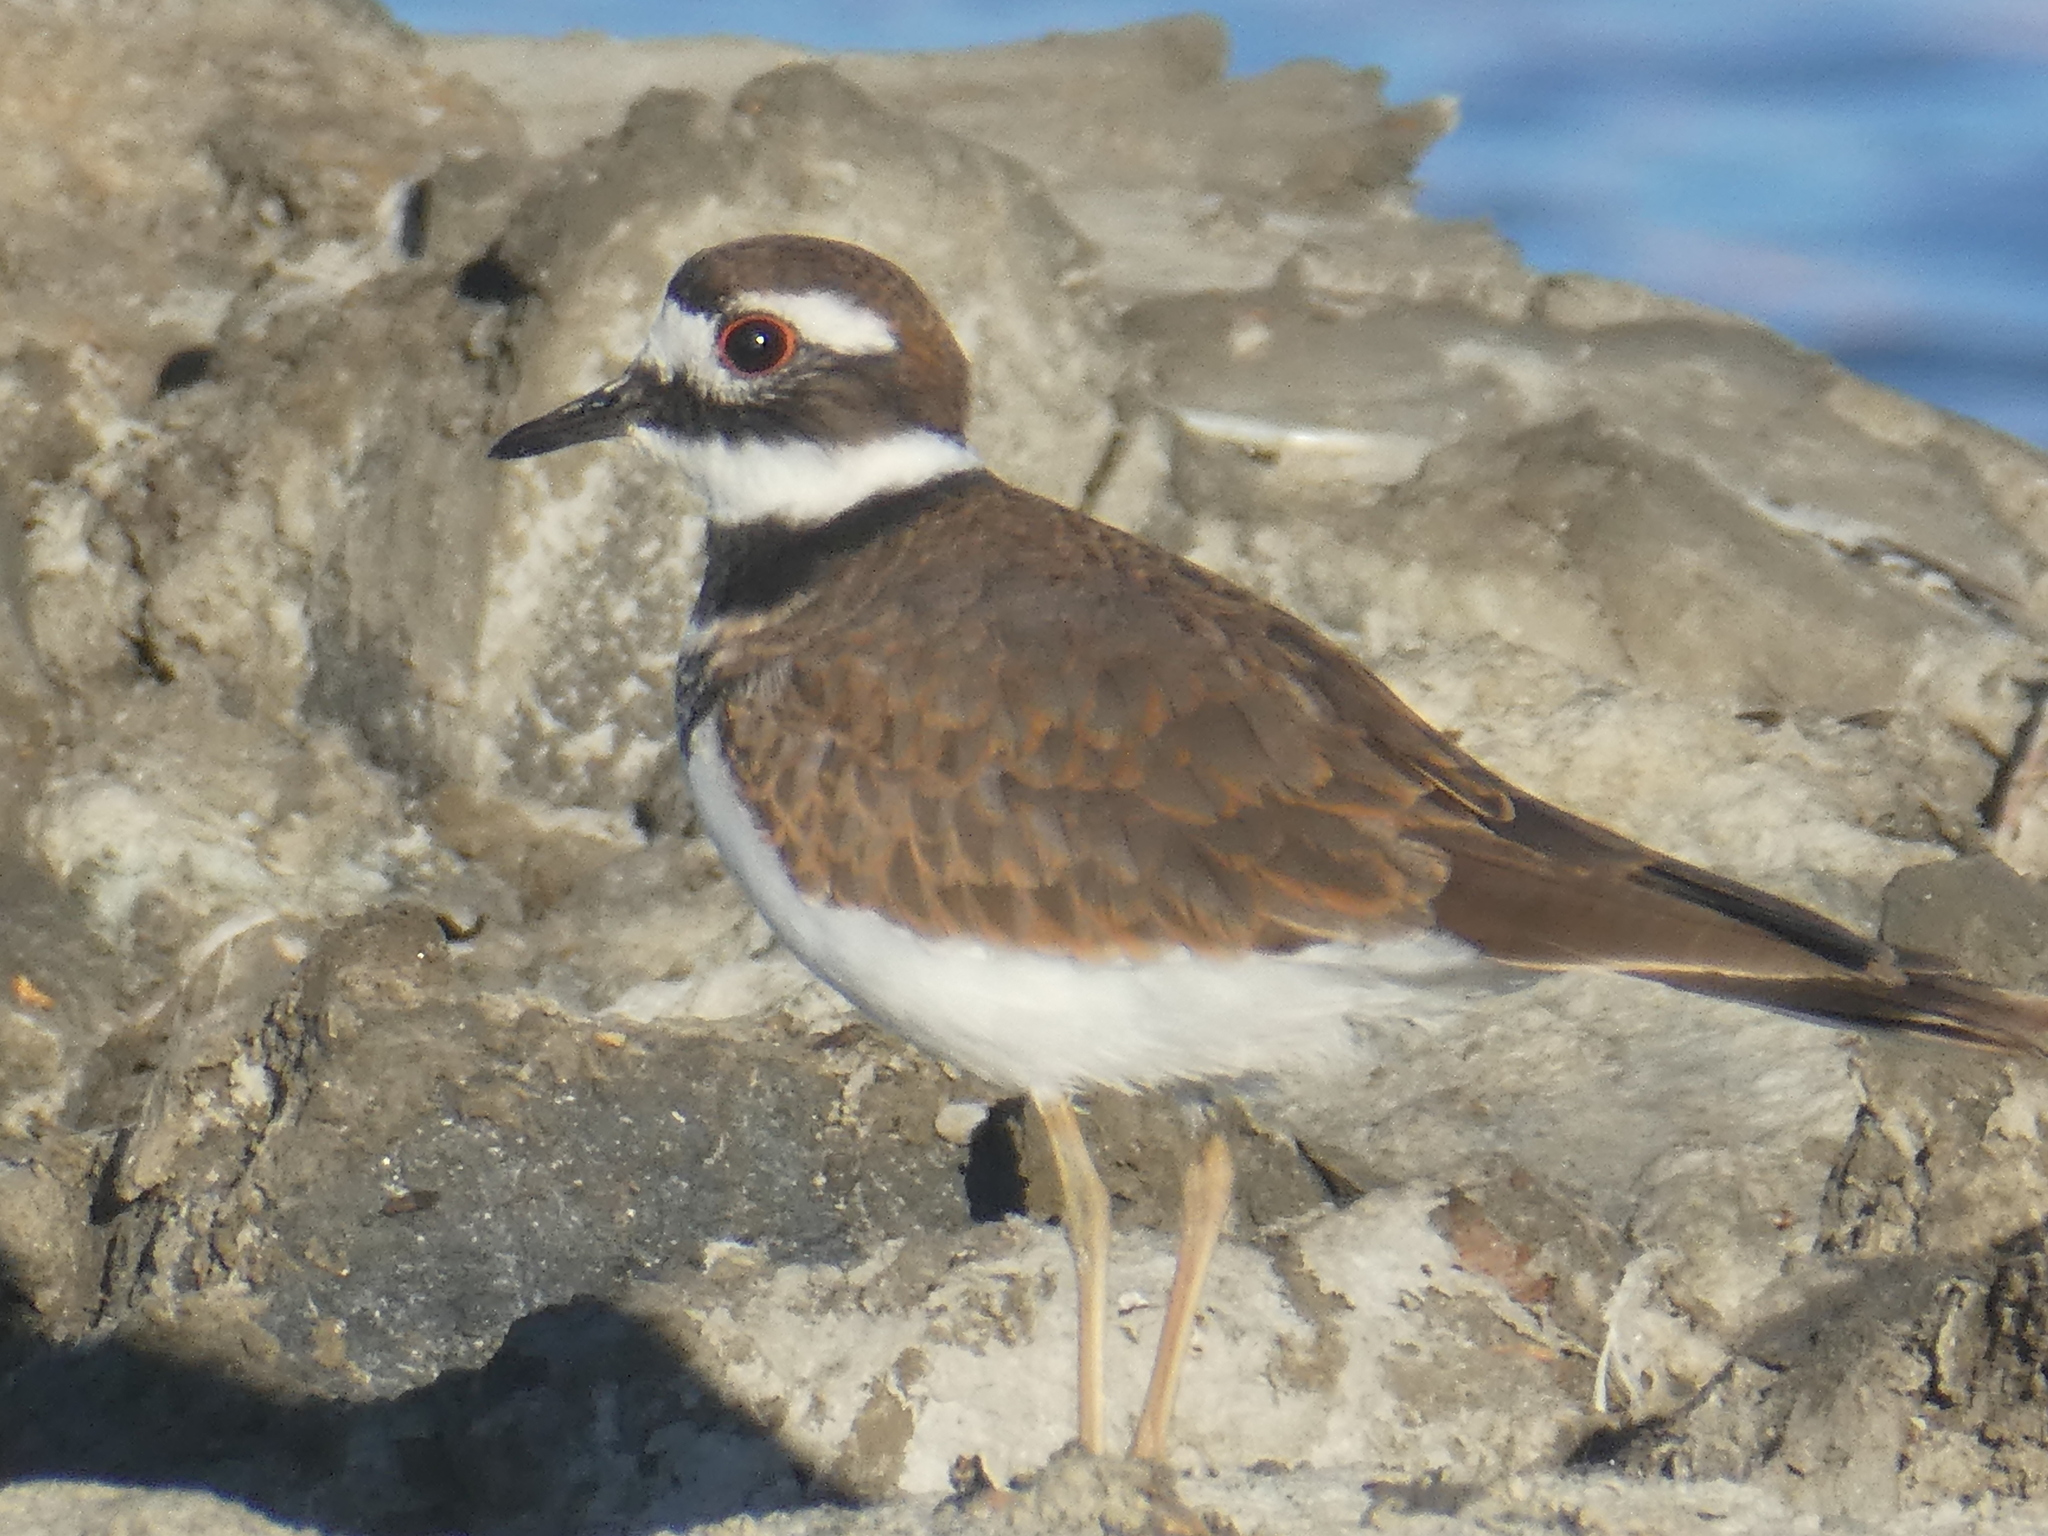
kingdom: Animalia
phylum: Chordata
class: Aves
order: Charadriiformes
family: Charadriidae
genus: Charadrius
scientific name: Charadrius vociferus
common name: Killdeer
